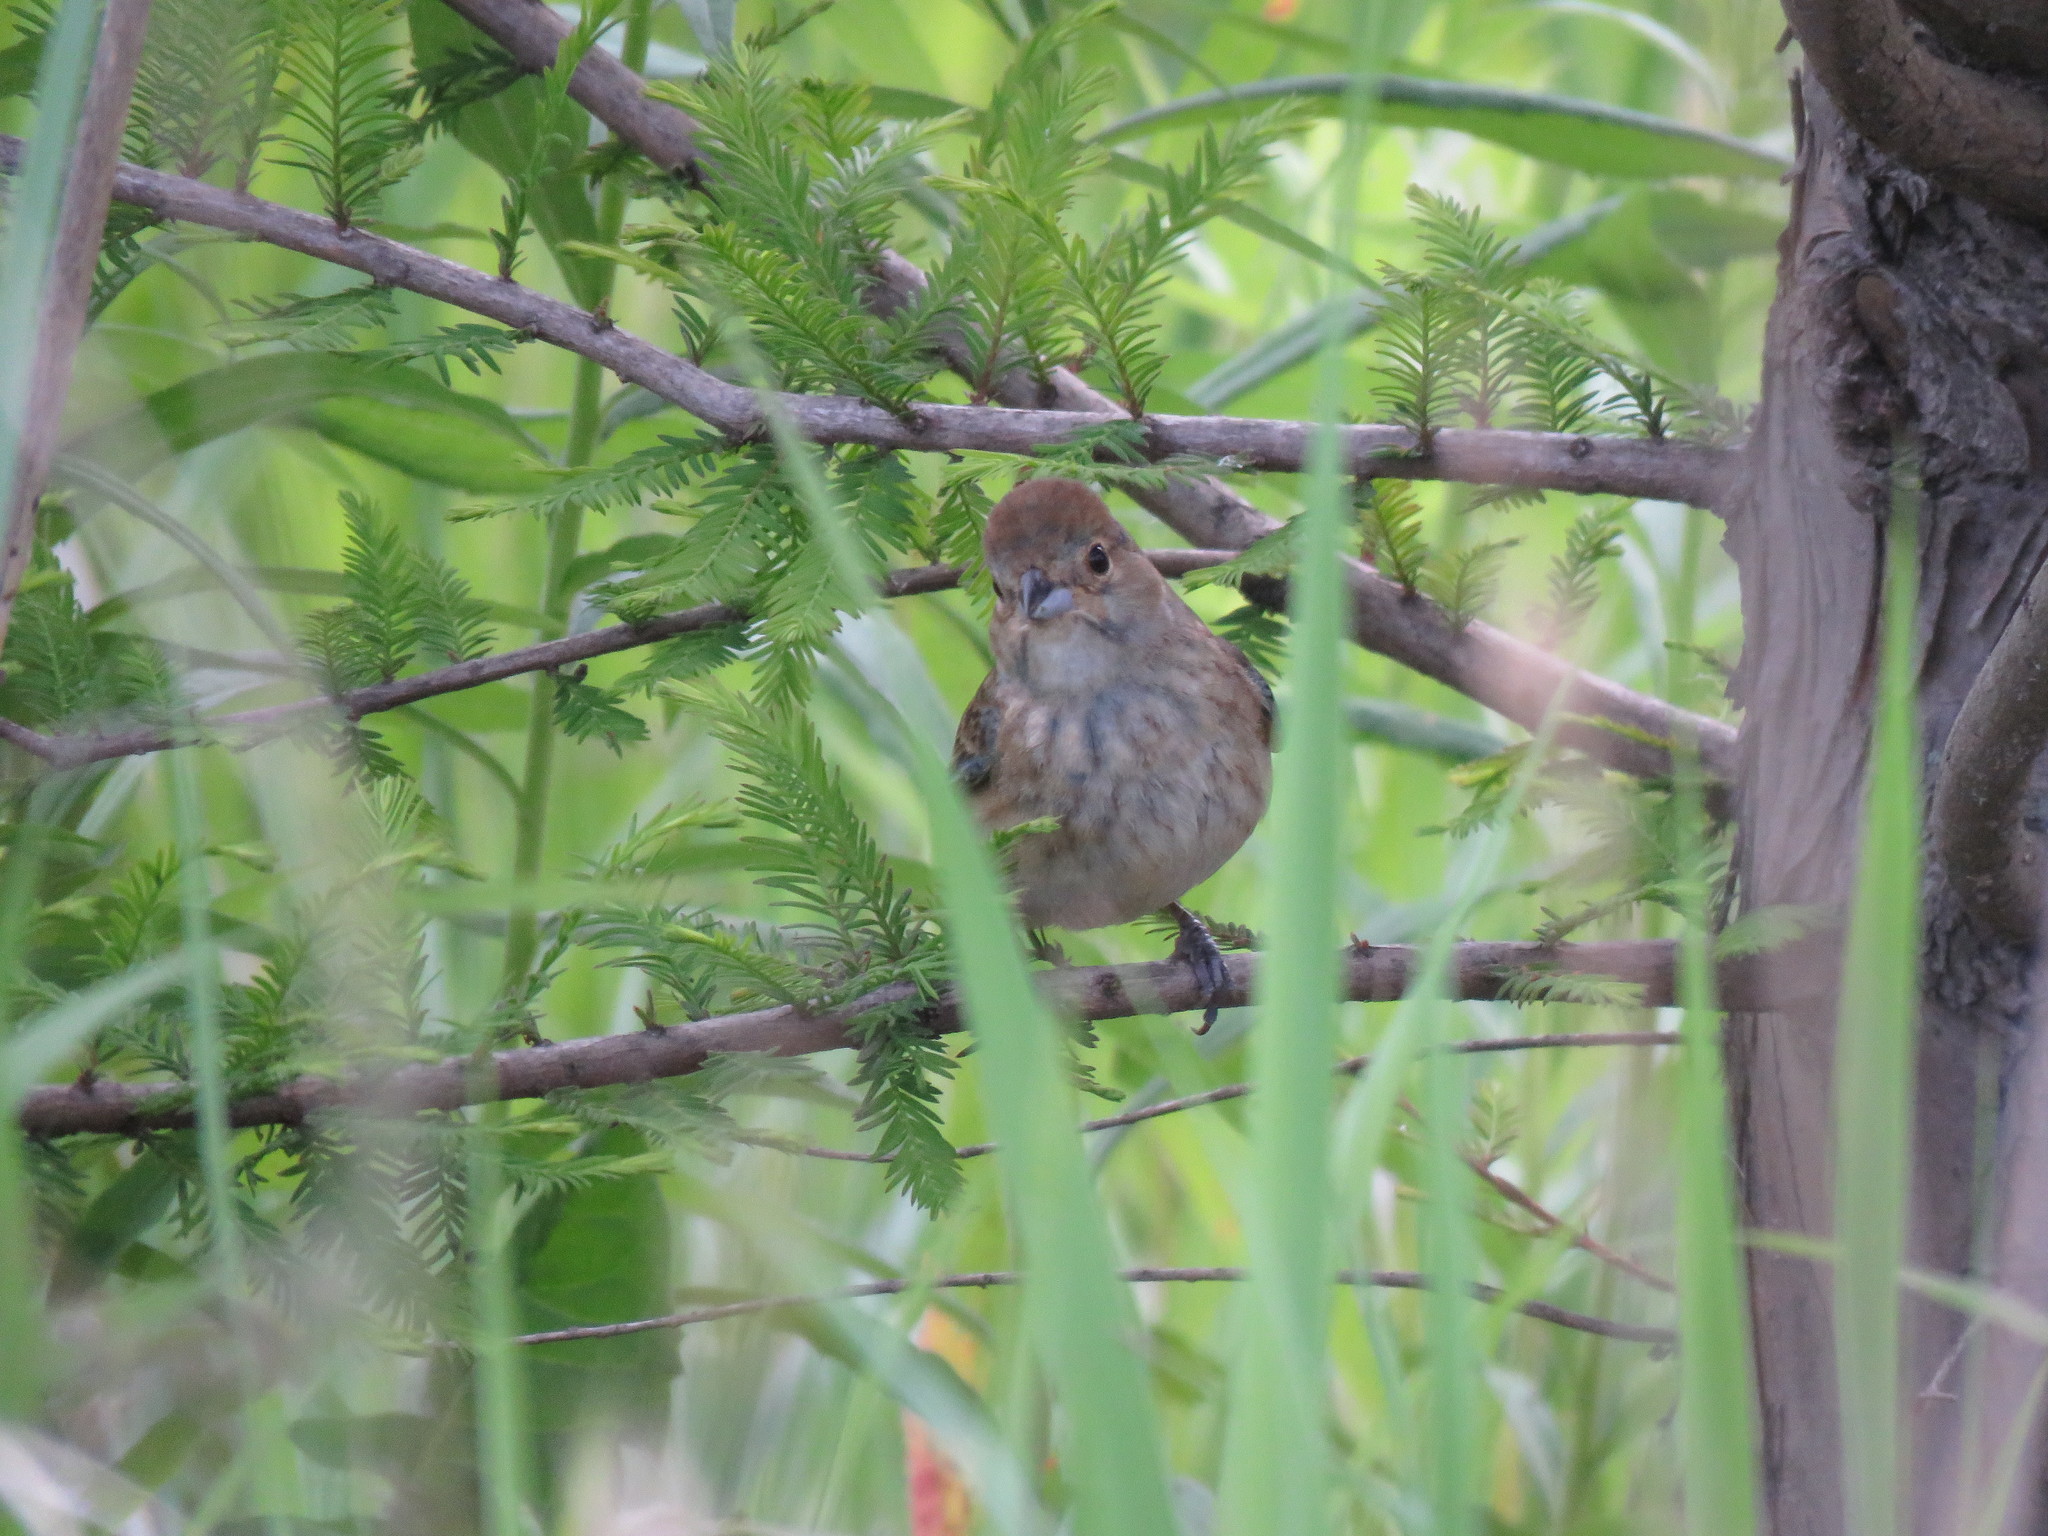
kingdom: Animalia
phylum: Chordata
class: Aves
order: Passeriformes
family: Cardinalidae
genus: Passerina
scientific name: Passerina cyanea
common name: Indigo bunting
